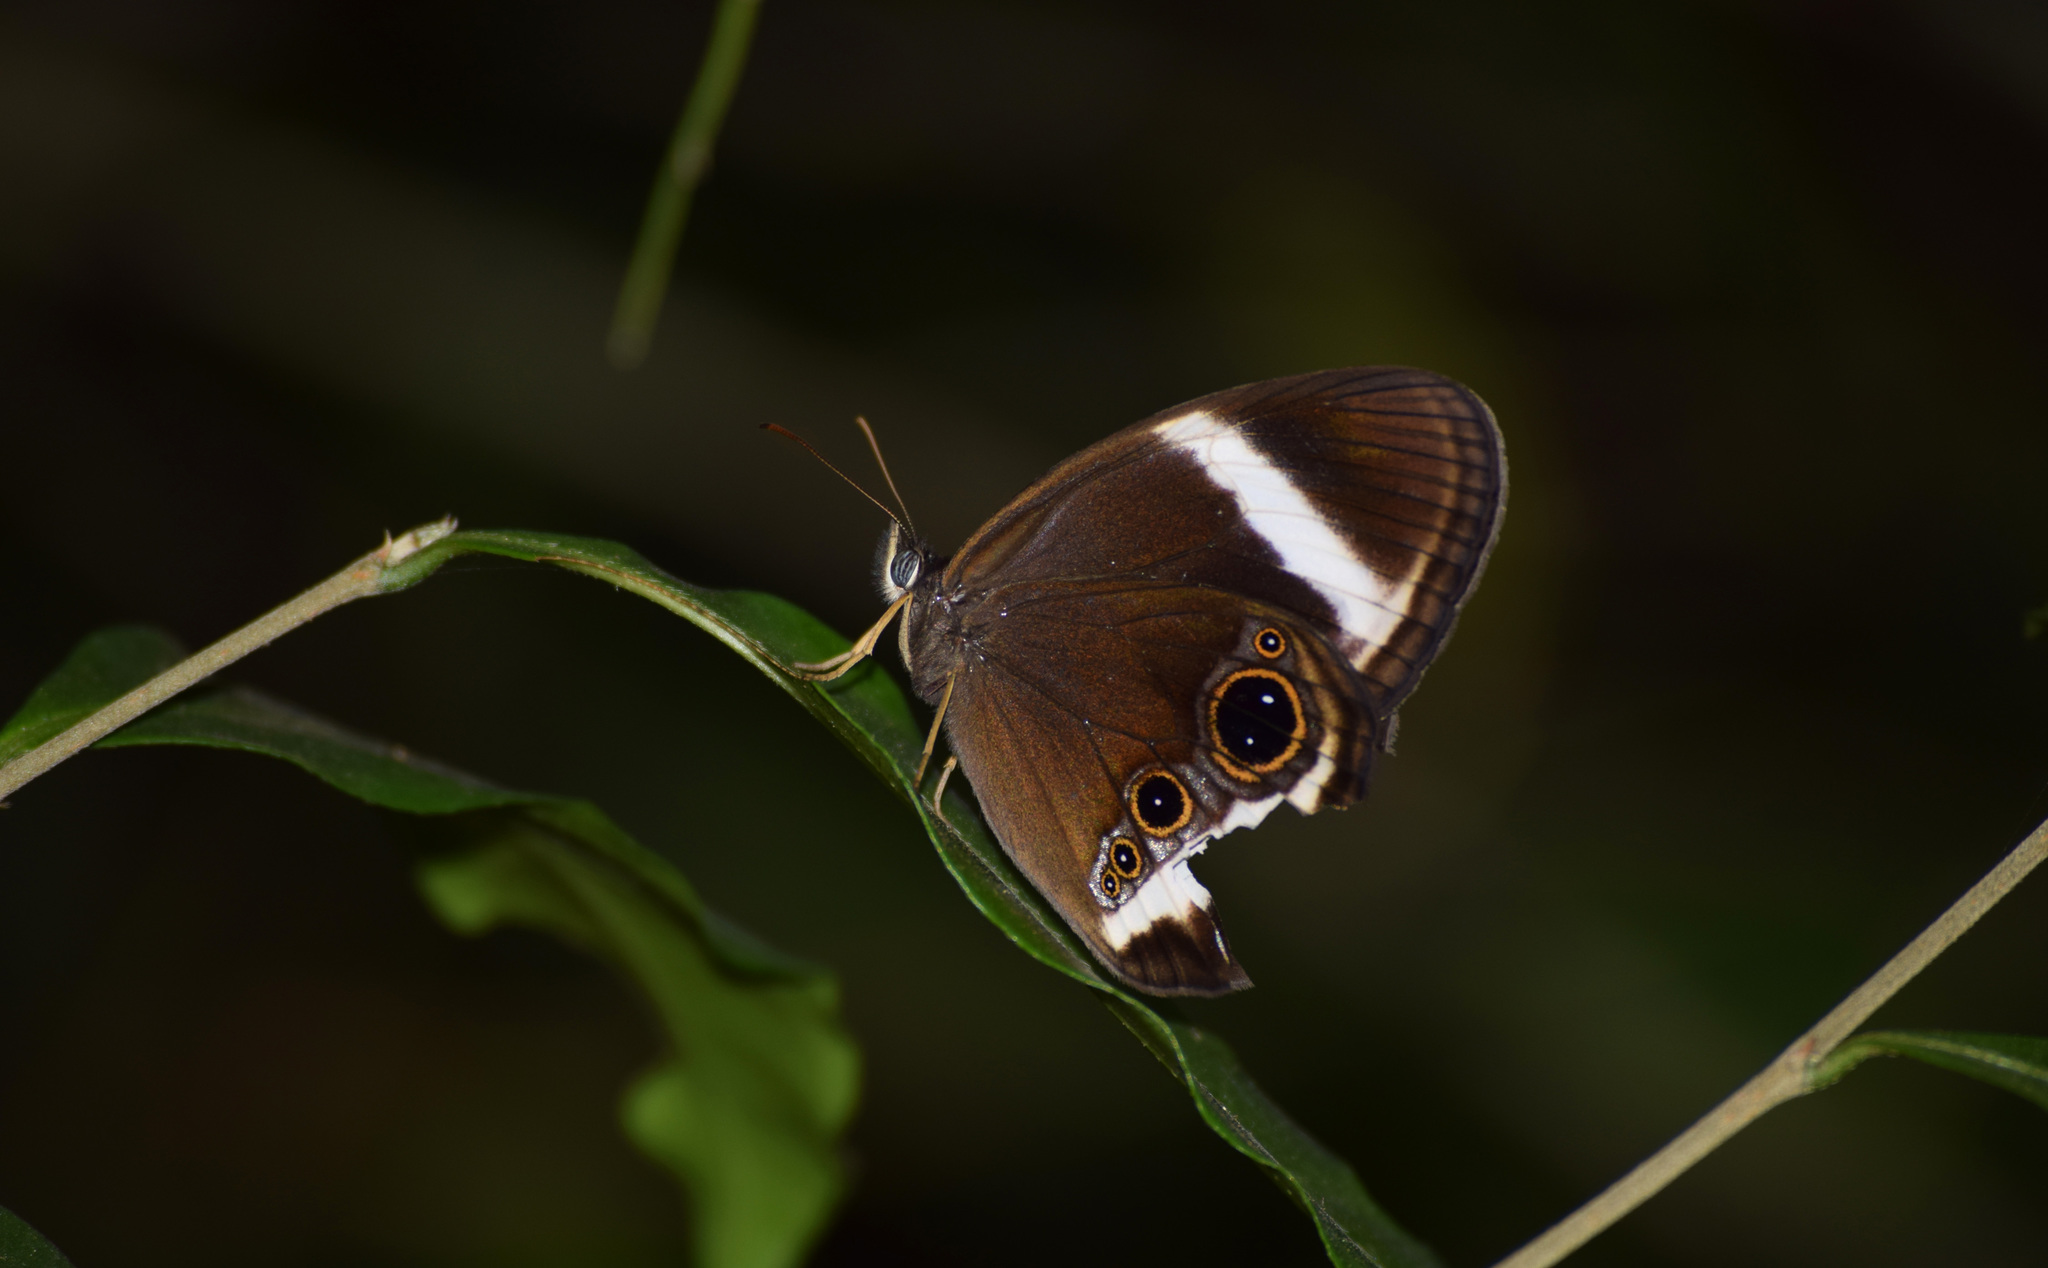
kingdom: Animalia
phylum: Arthropoda
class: Insecta
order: Lepidoptera
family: Nymphalidae
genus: Zipaetis
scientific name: Zipaetis saitis
